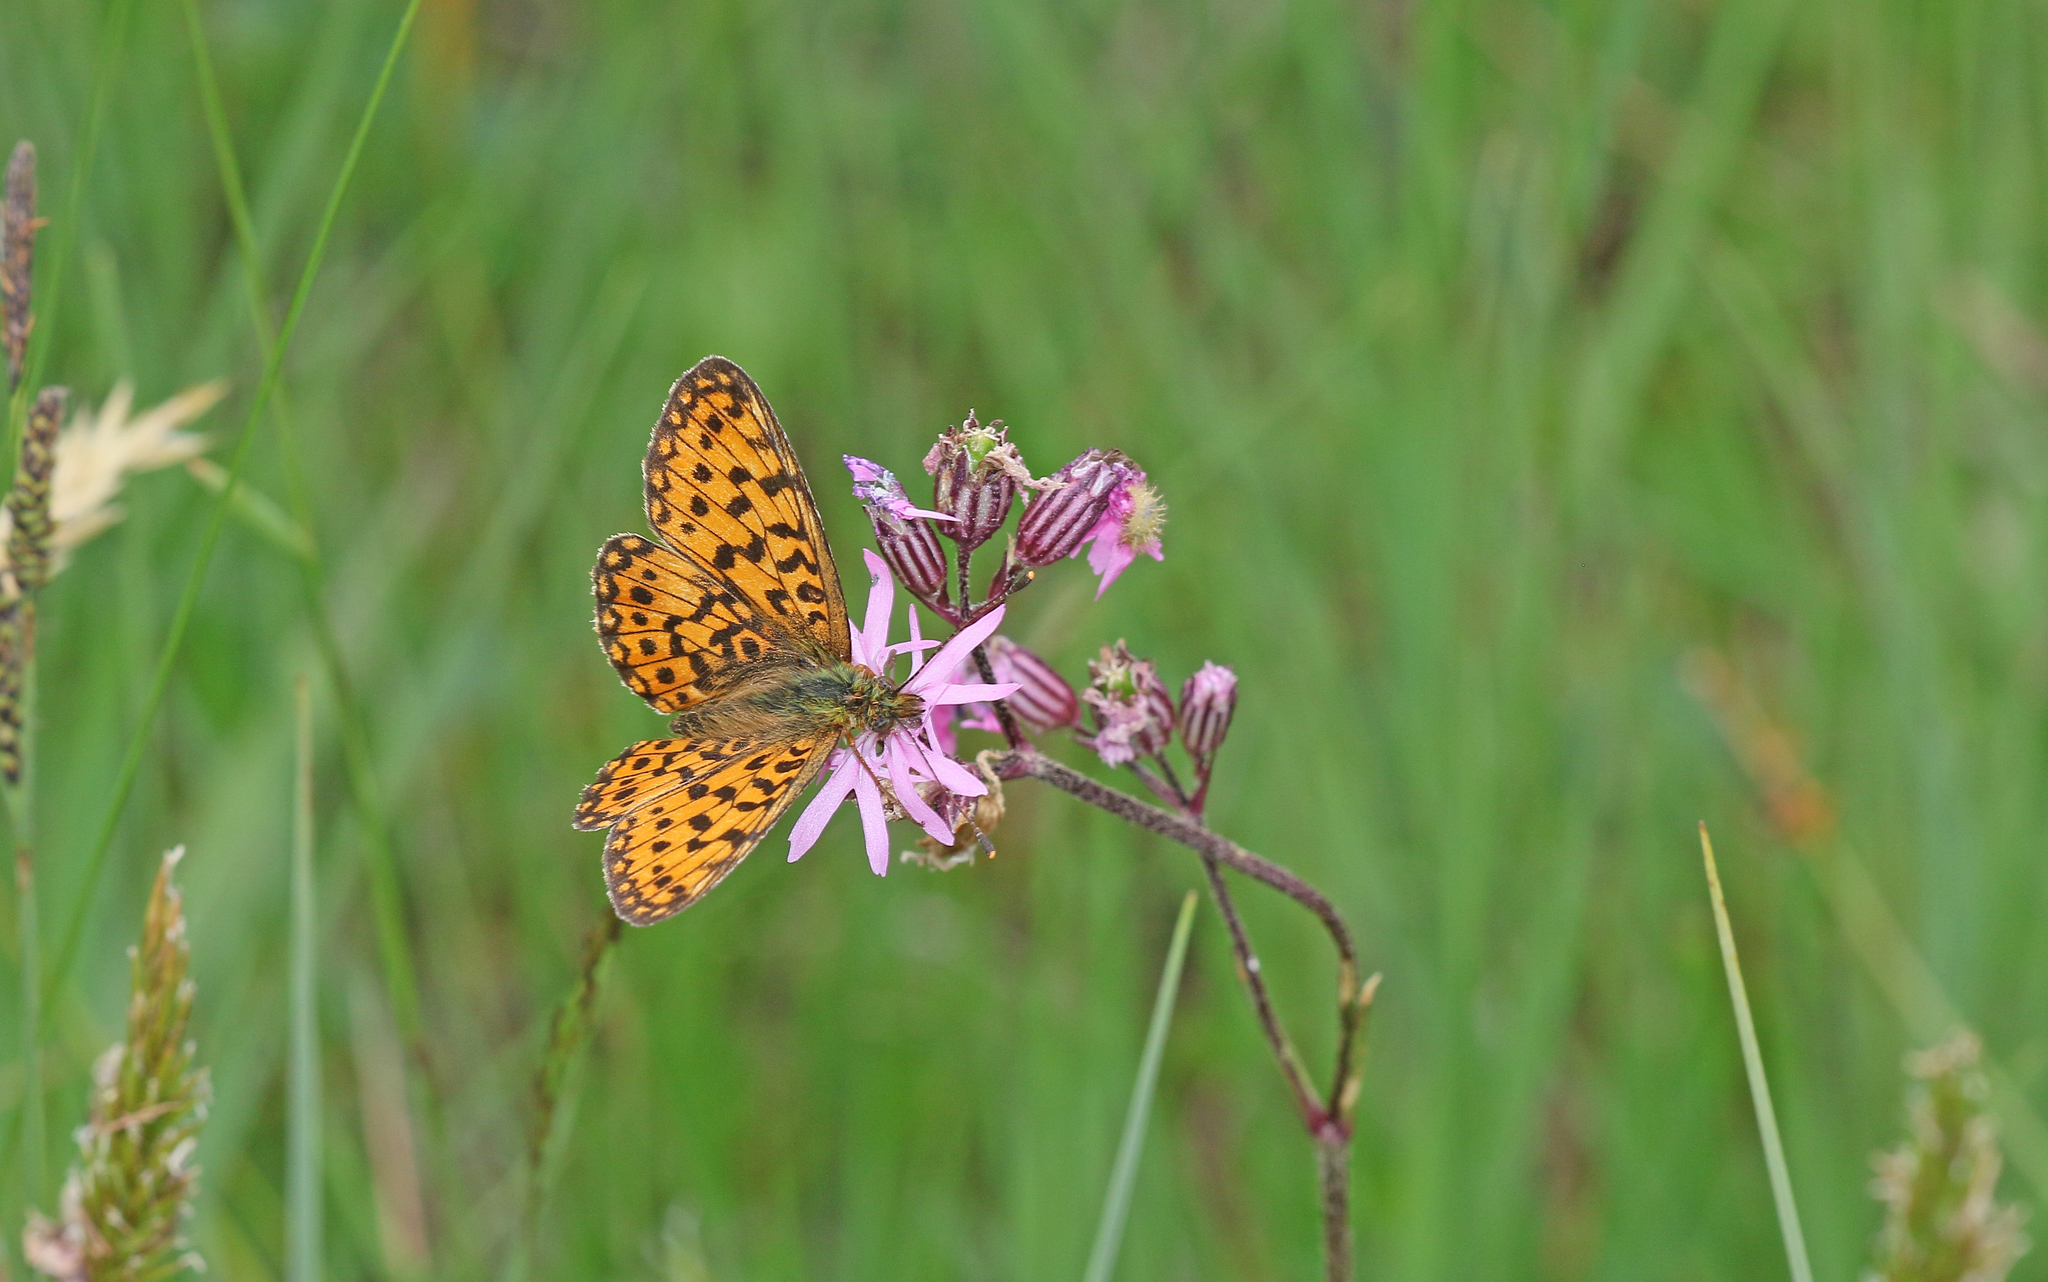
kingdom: Animalia
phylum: Arthropoda
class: Insecta
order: Lepidoptera
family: Nymphalidae
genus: Boloria
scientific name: Boloria selene
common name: Small pearl-bordered fritillary
